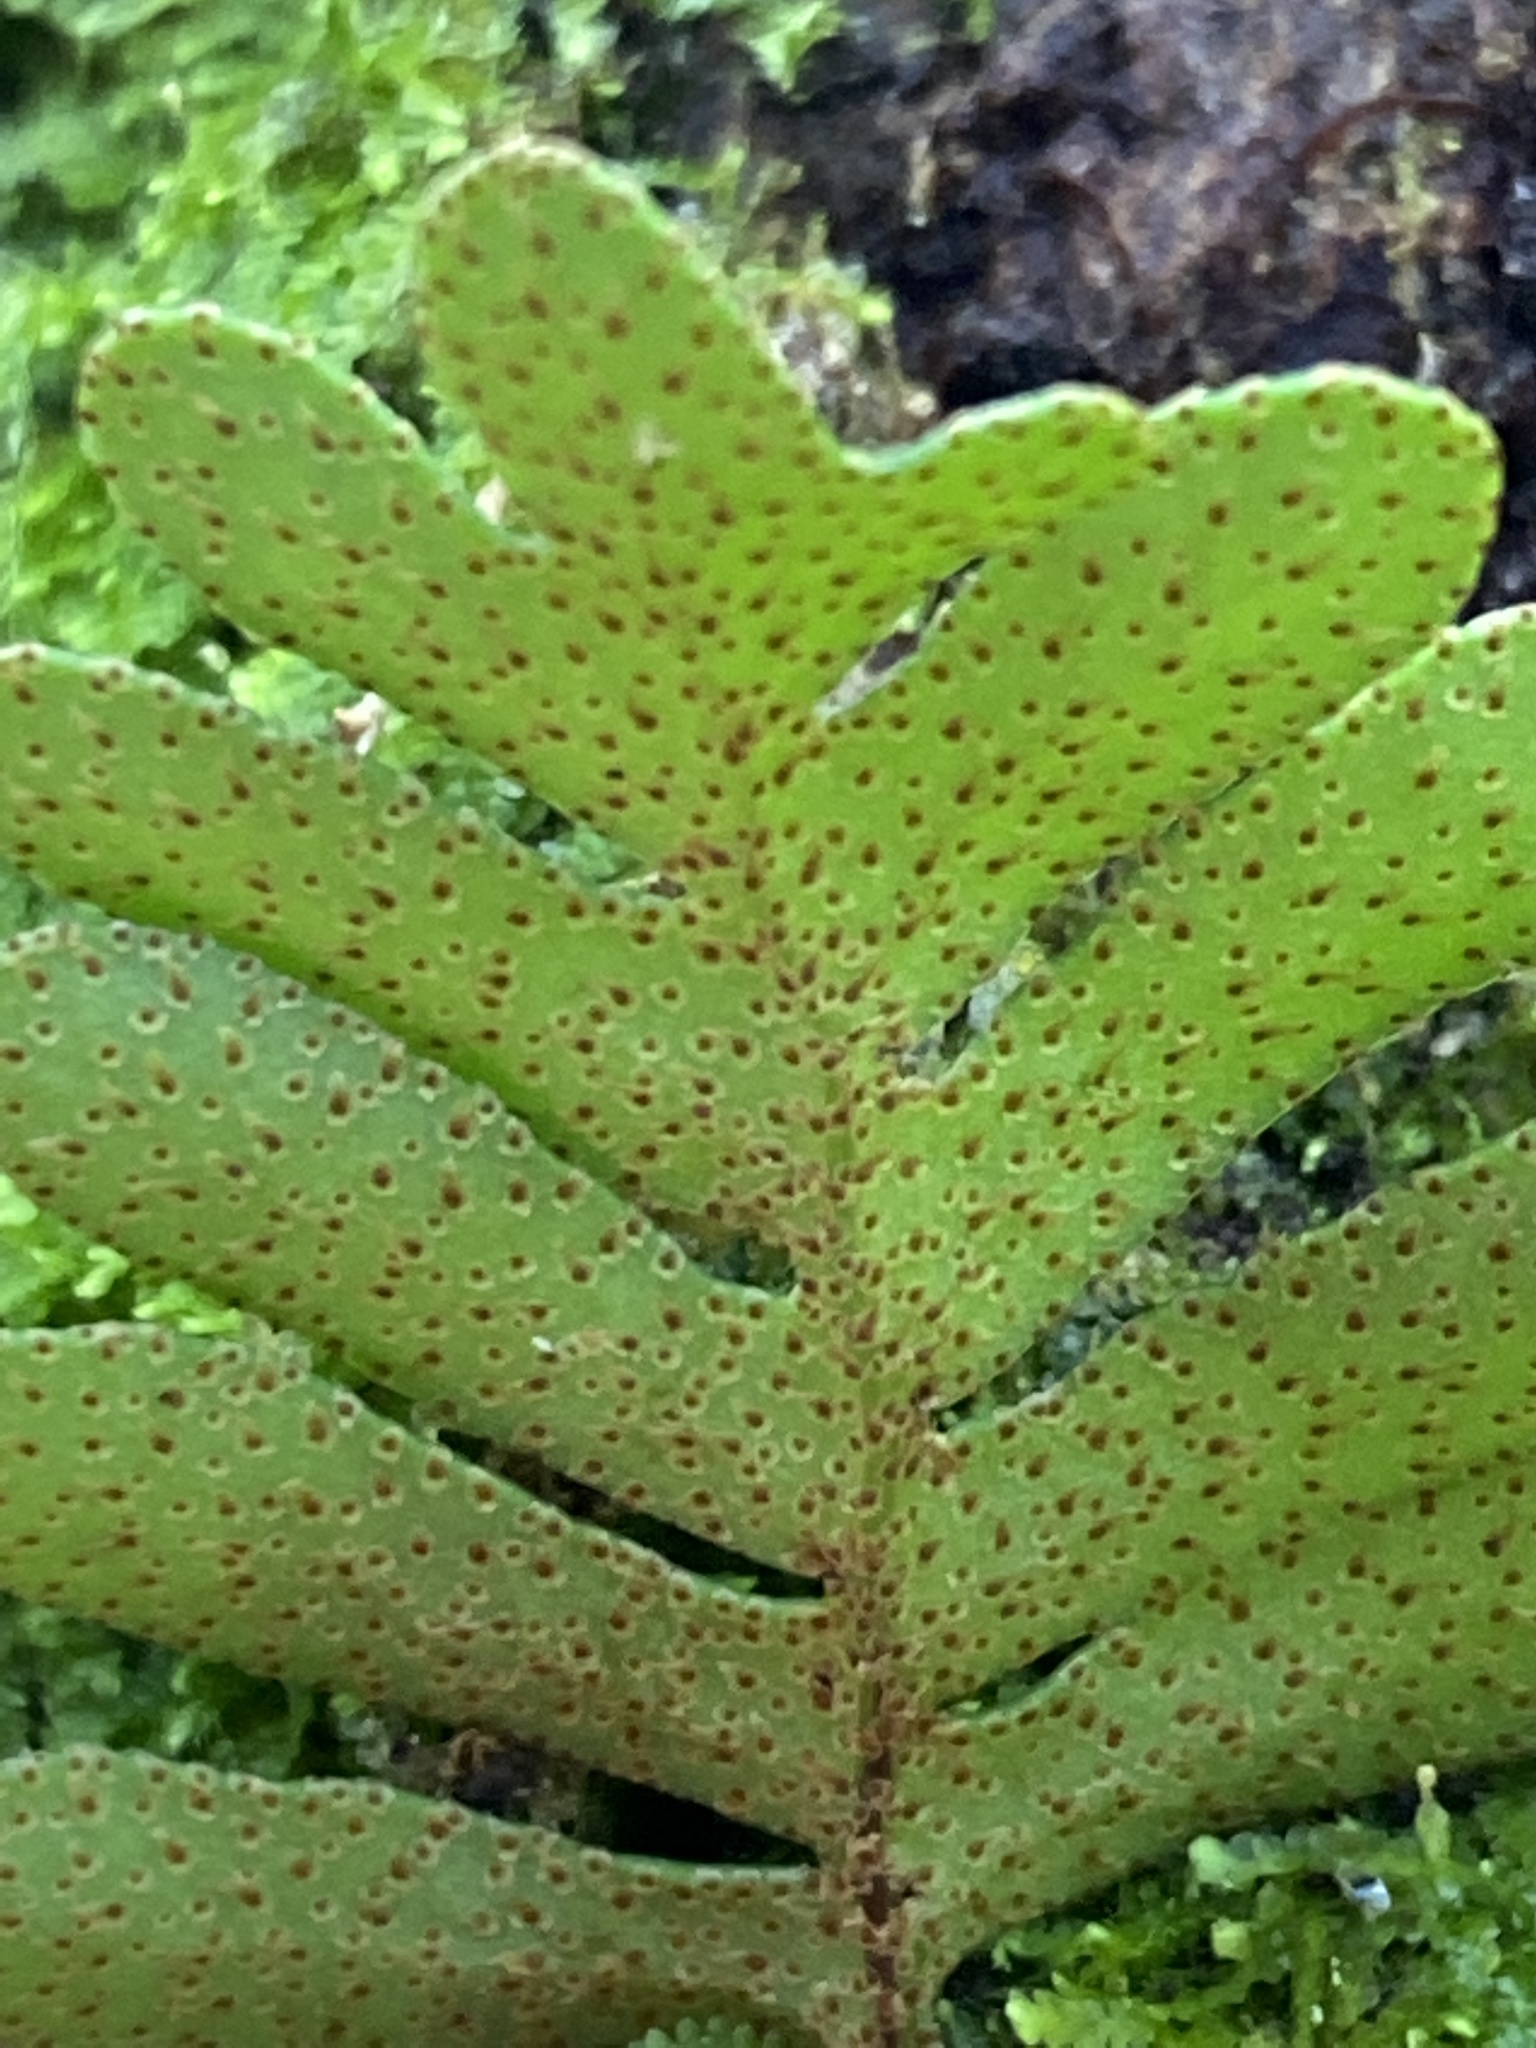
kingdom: Plantae
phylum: Tracheophyta
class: Polypodiopsida
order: Polypodiales
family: Polypodiaceae
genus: Pleopeltis
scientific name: Pleopeltis michauxiana
